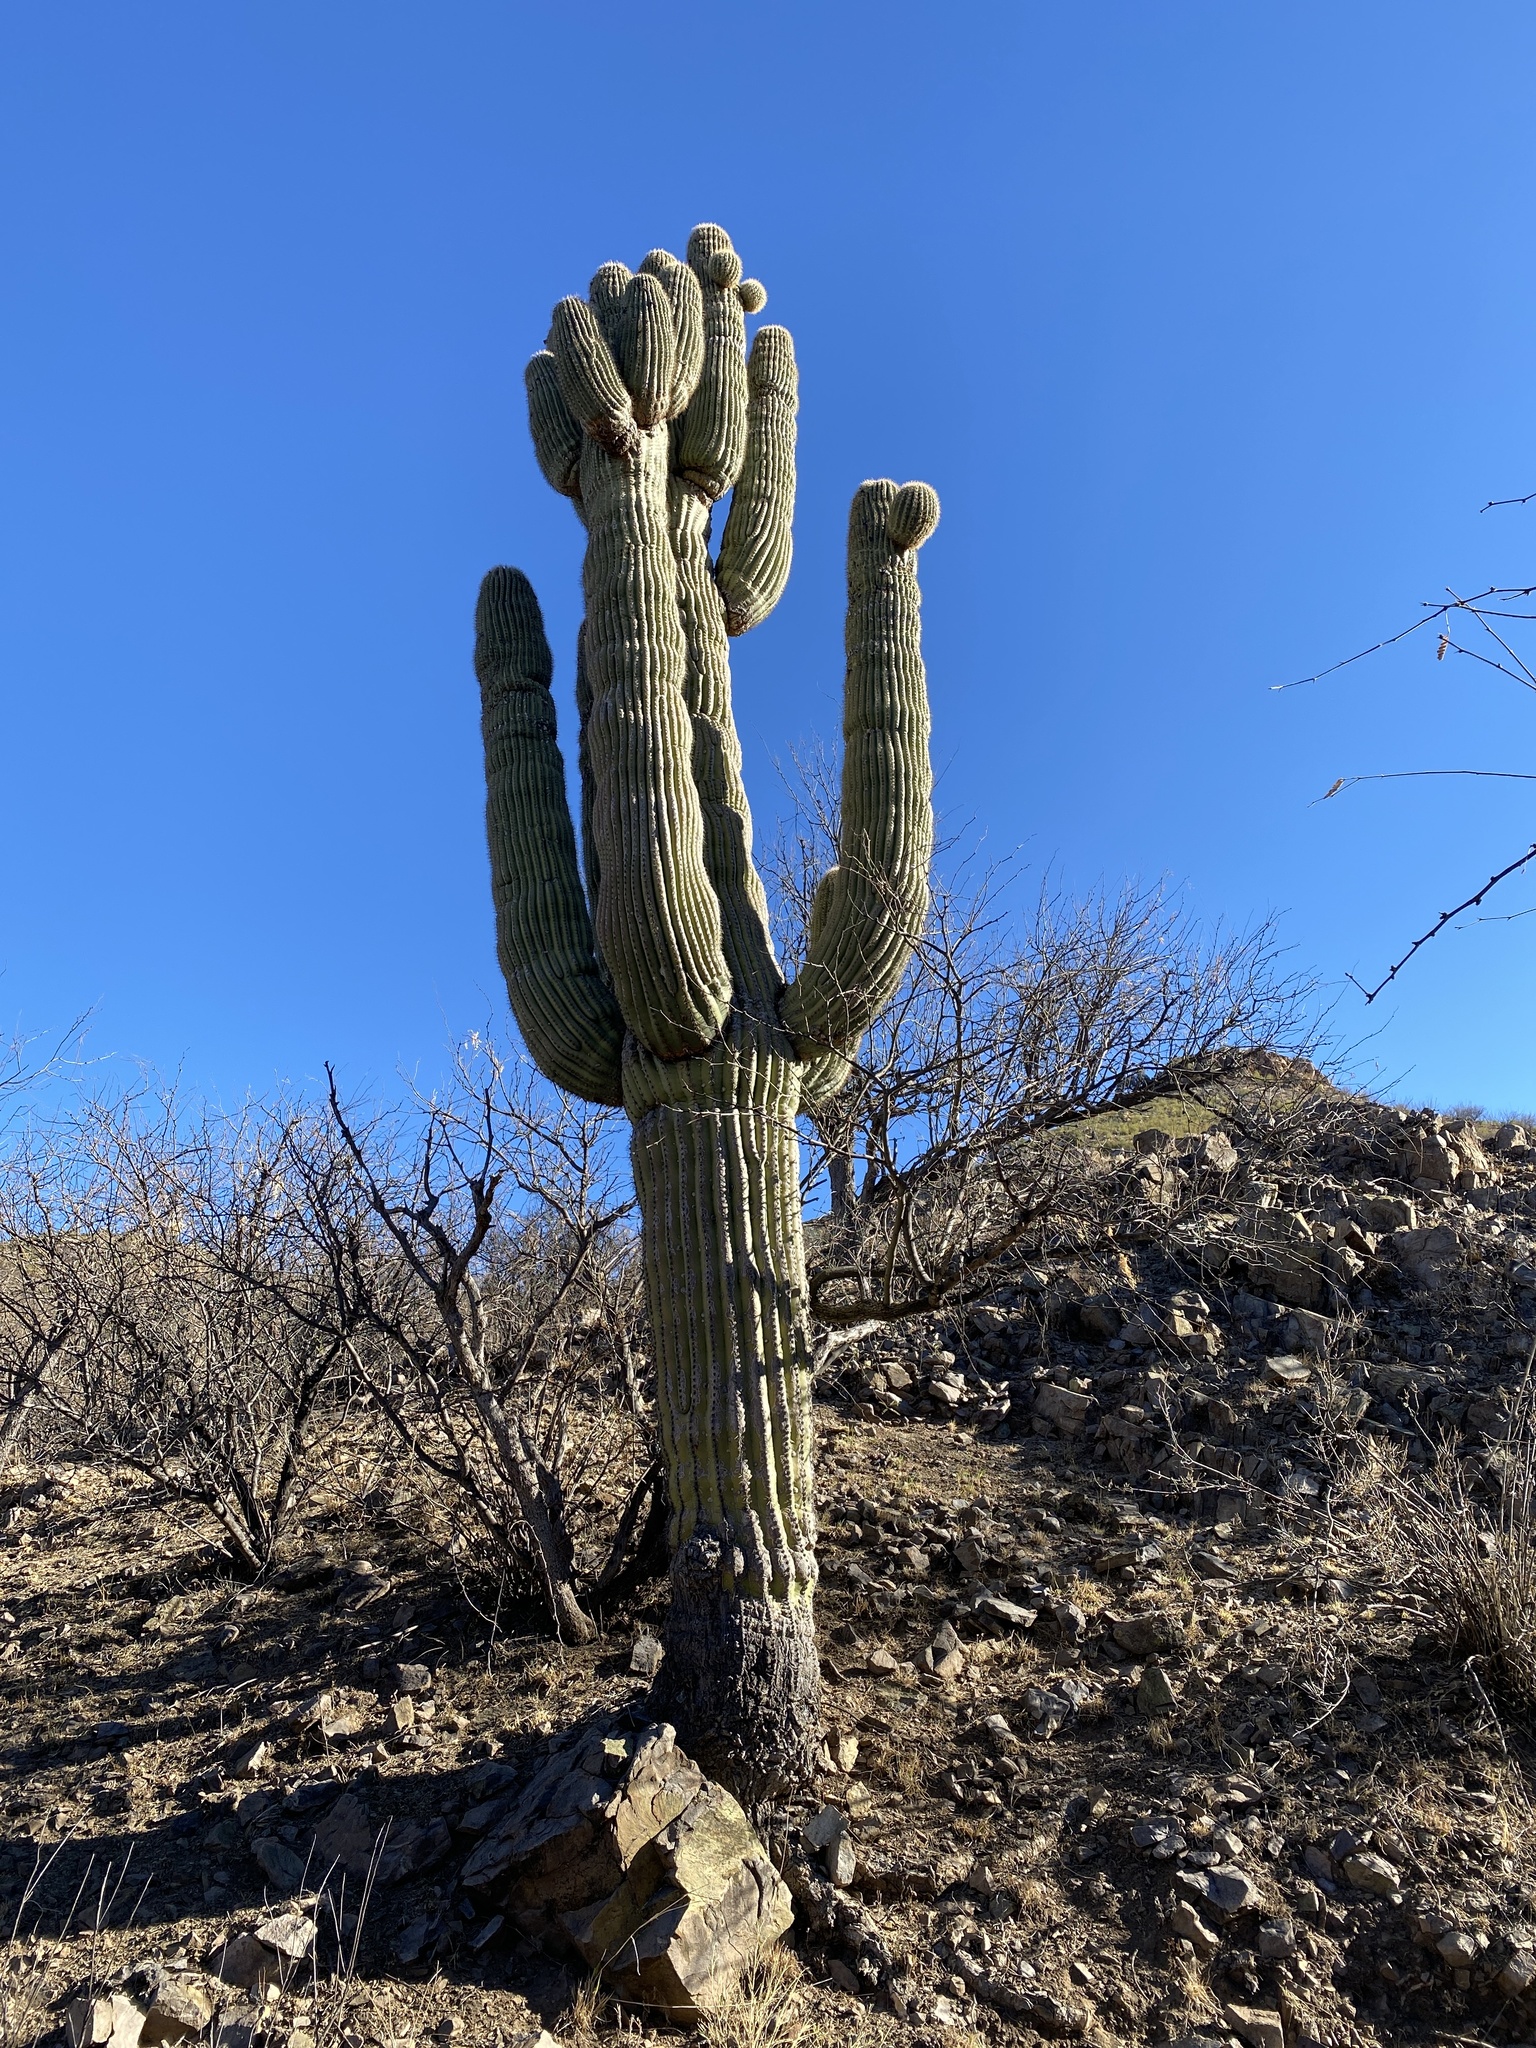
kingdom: Plantae
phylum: Tracheophyta
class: Magnoliopsida
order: Caryophyllales
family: Cactaceae
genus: Carnegiea
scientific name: Carnegiea gigantea
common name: Saguaro
